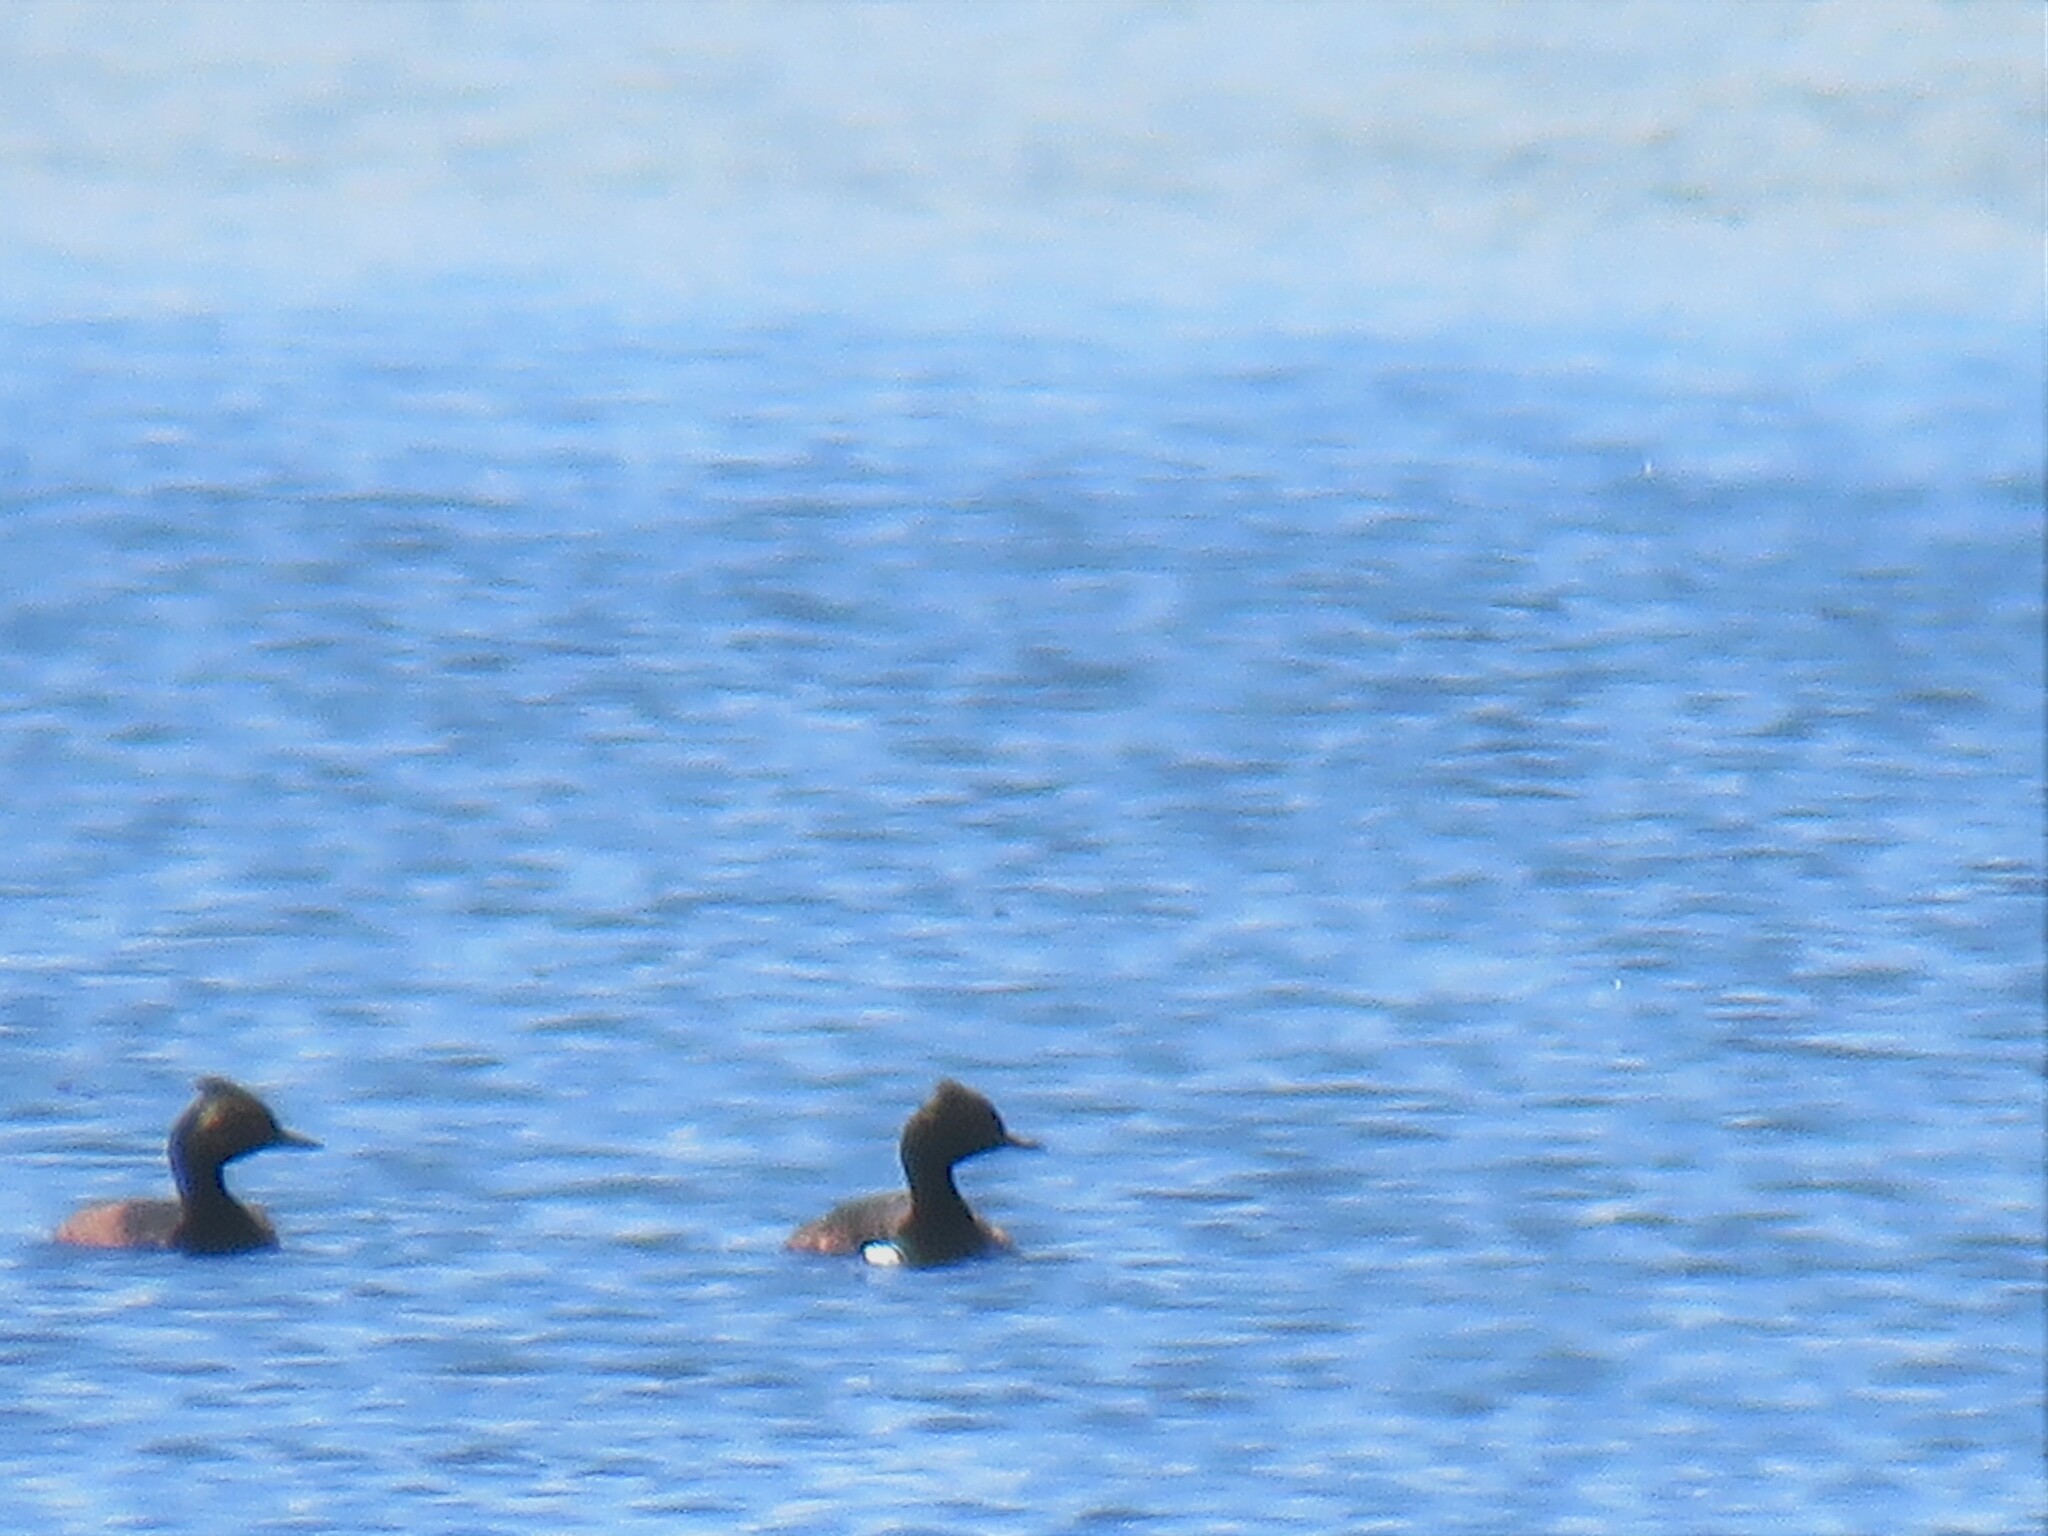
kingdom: Animalia
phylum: Chordata
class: Aves
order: Podicipediformes
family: Podicipedidae
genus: Podiceps
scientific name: Podiceps nigricollis
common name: Black-necked grebe
